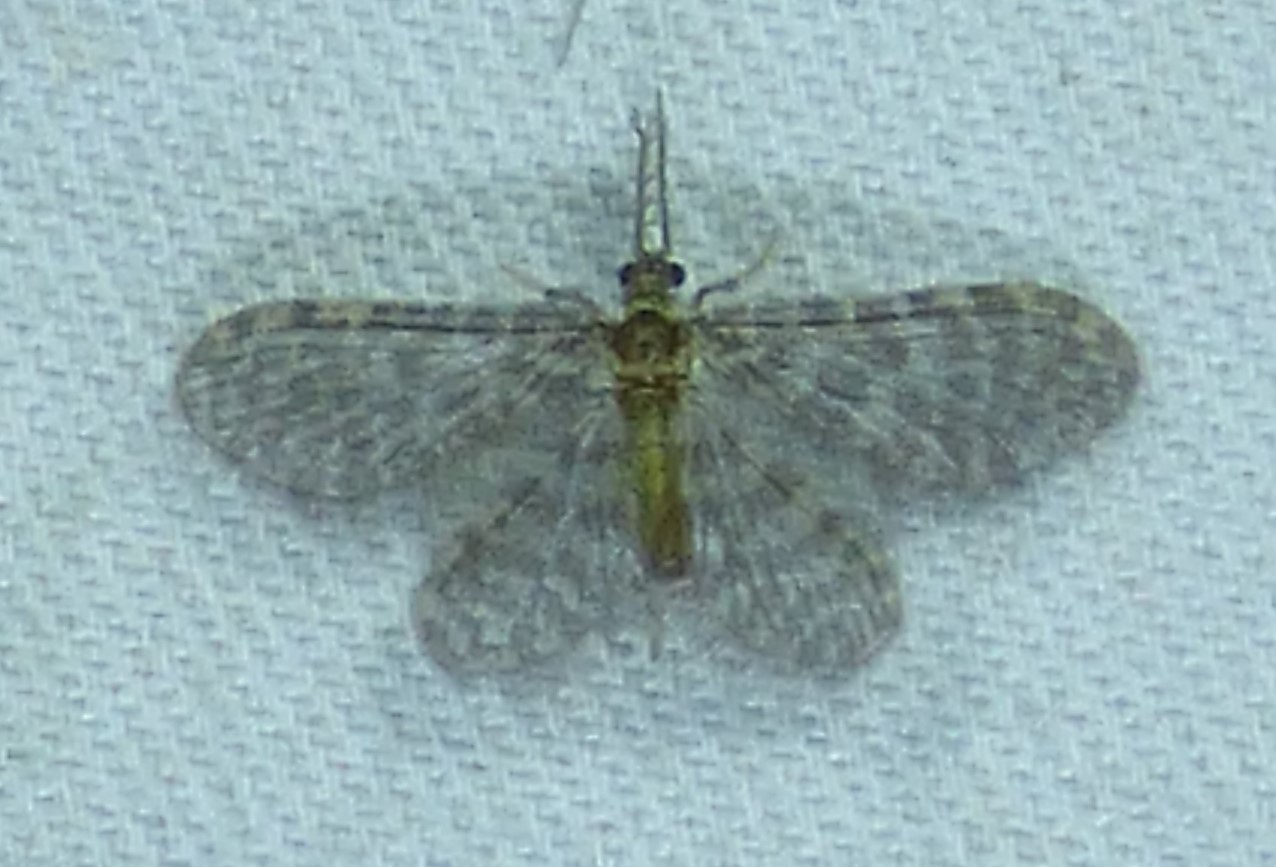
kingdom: Animalia
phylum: Arthropoda
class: Insecta
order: Neuroptera
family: Dilaridae
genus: Nallachius
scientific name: Nallachius americanus
